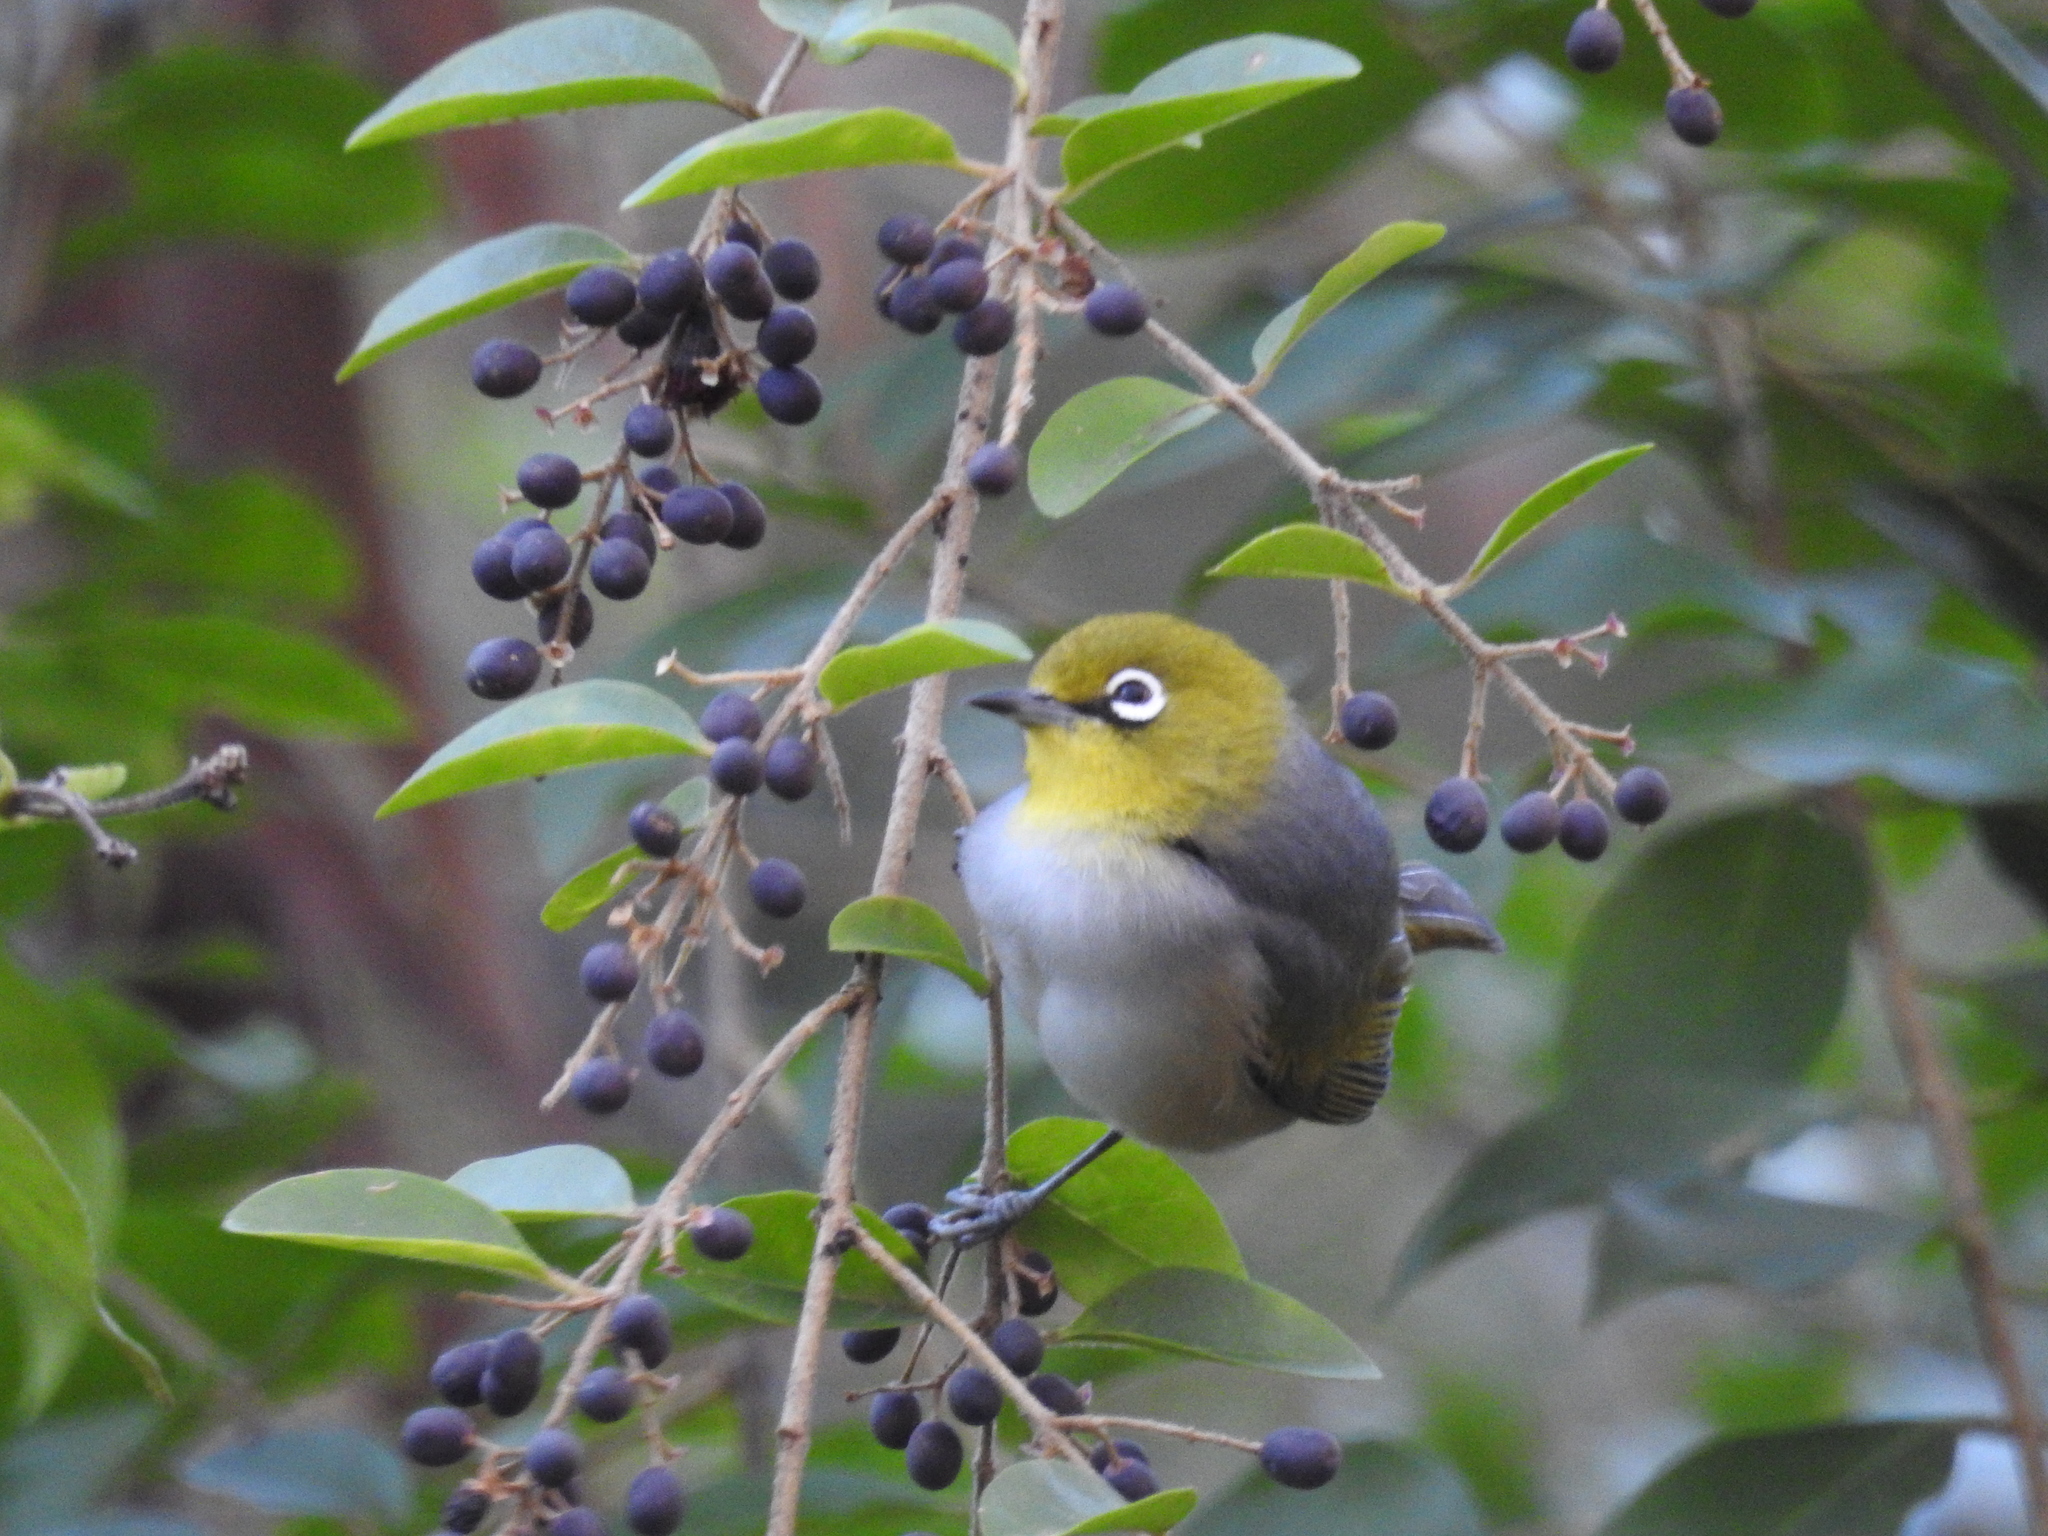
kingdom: Animalia
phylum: Chordata
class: Aves
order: Passeriformes
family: Zosteropidae
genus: Zosterops
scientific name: Zosterops lateralis
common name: Silvereye
